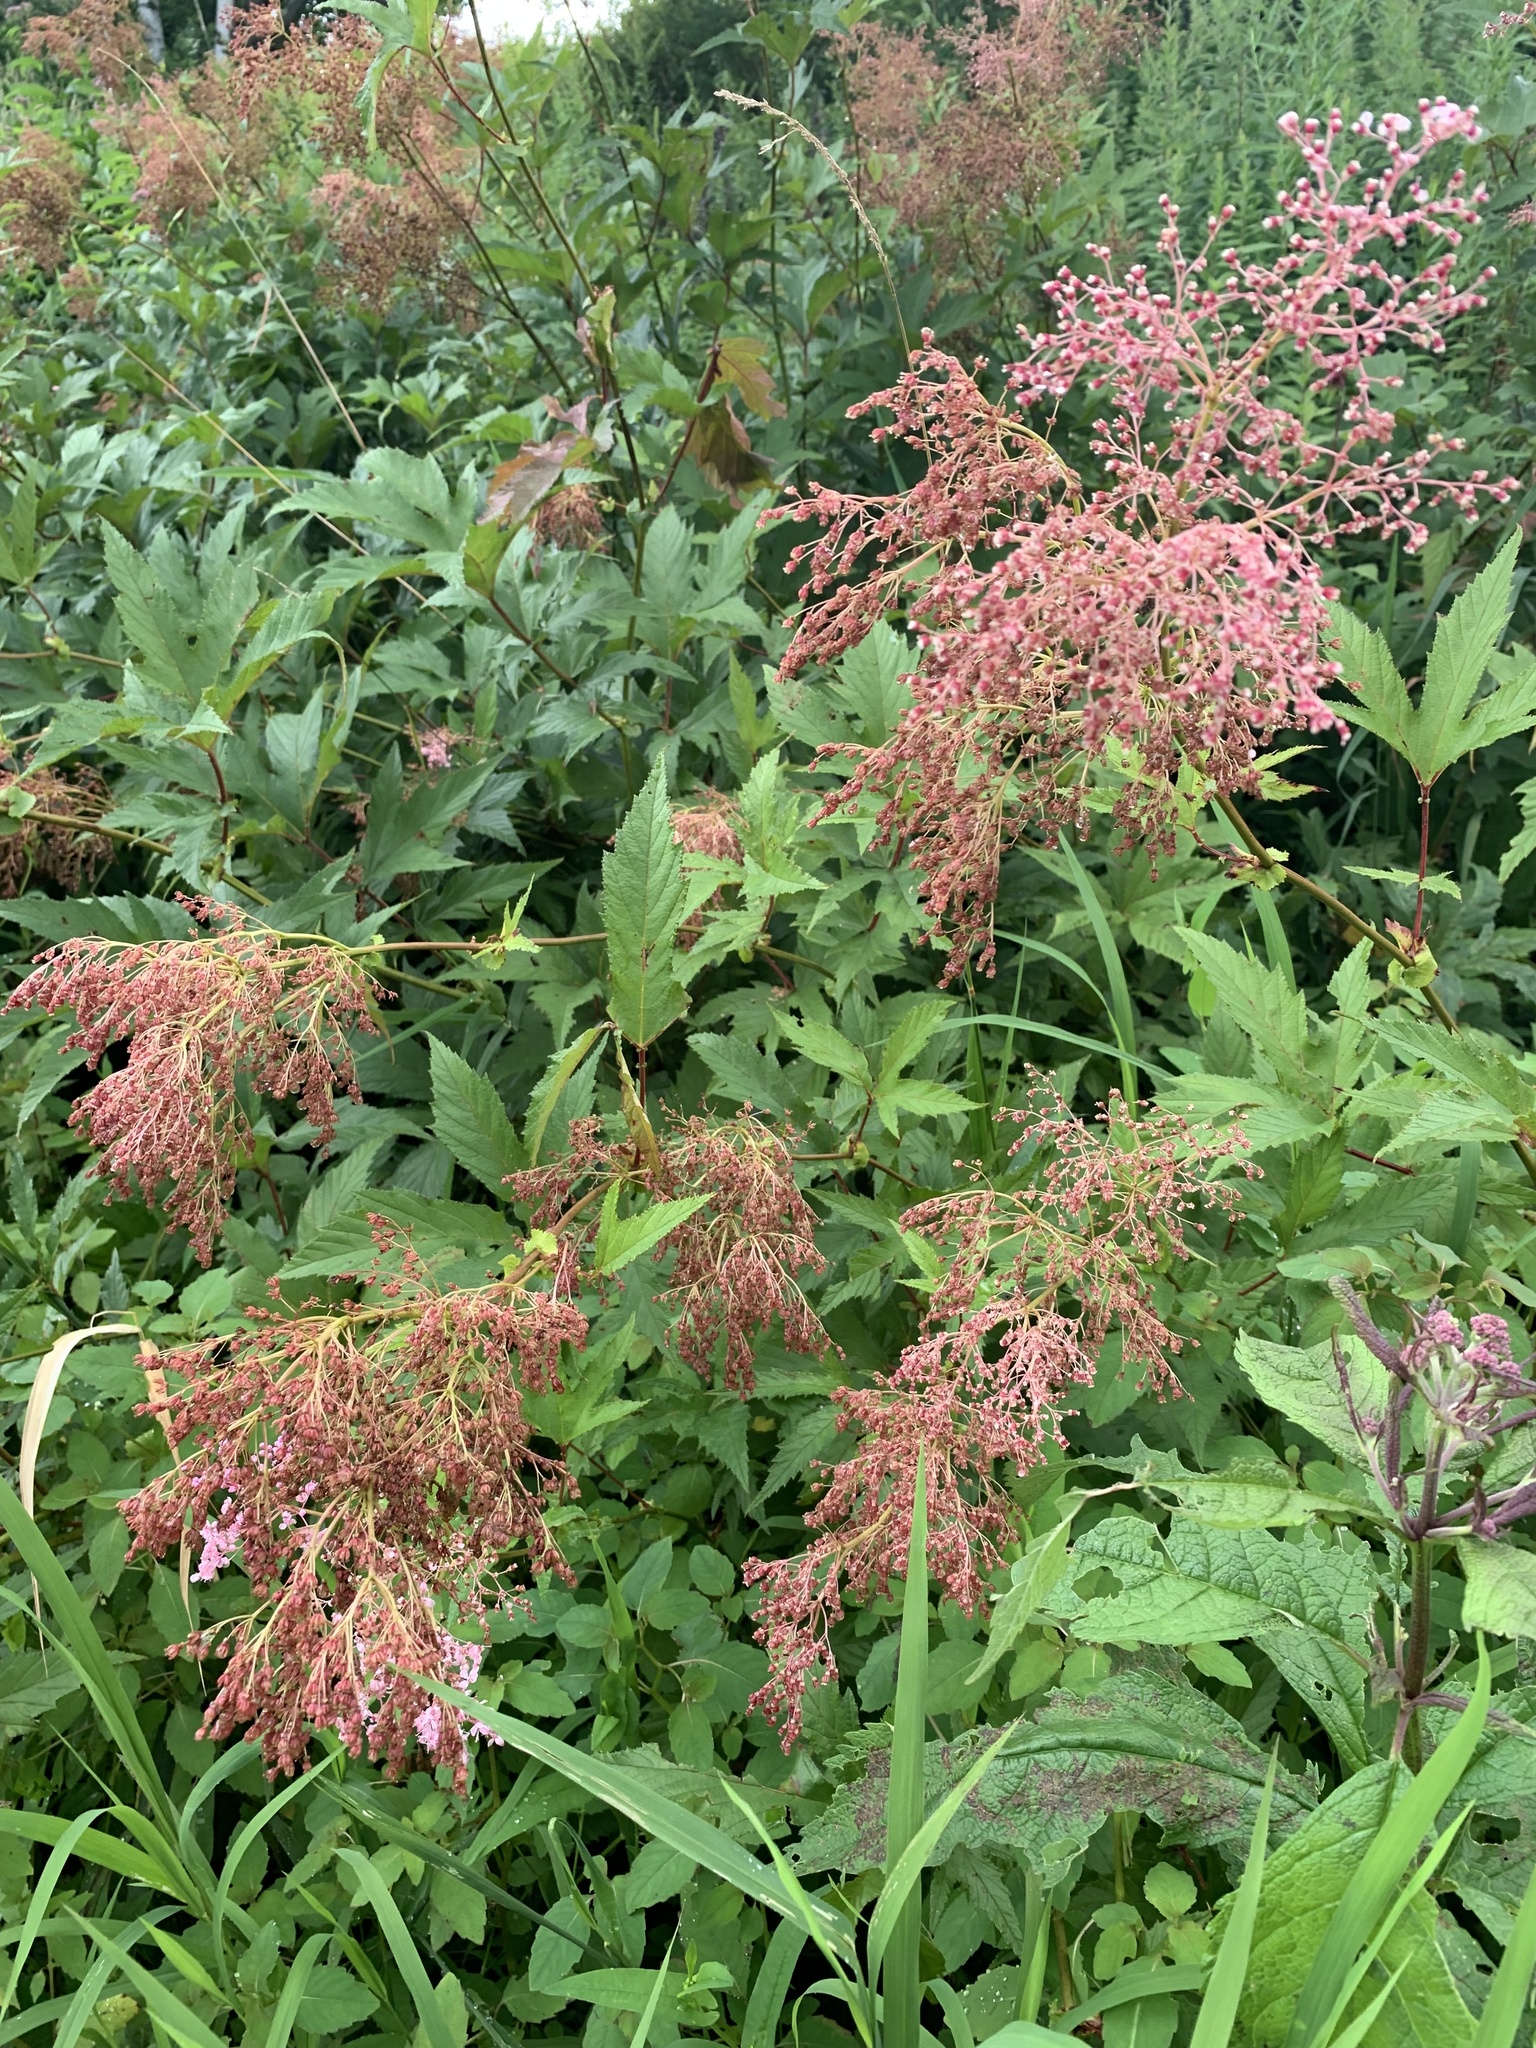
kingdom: Plantae
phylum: Tracheophyta
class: Magnoliopsida
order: Rosales
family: Rosaceae
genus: Filipendula
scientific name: Filipendula rubra
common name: Queen-of-the-prairie
